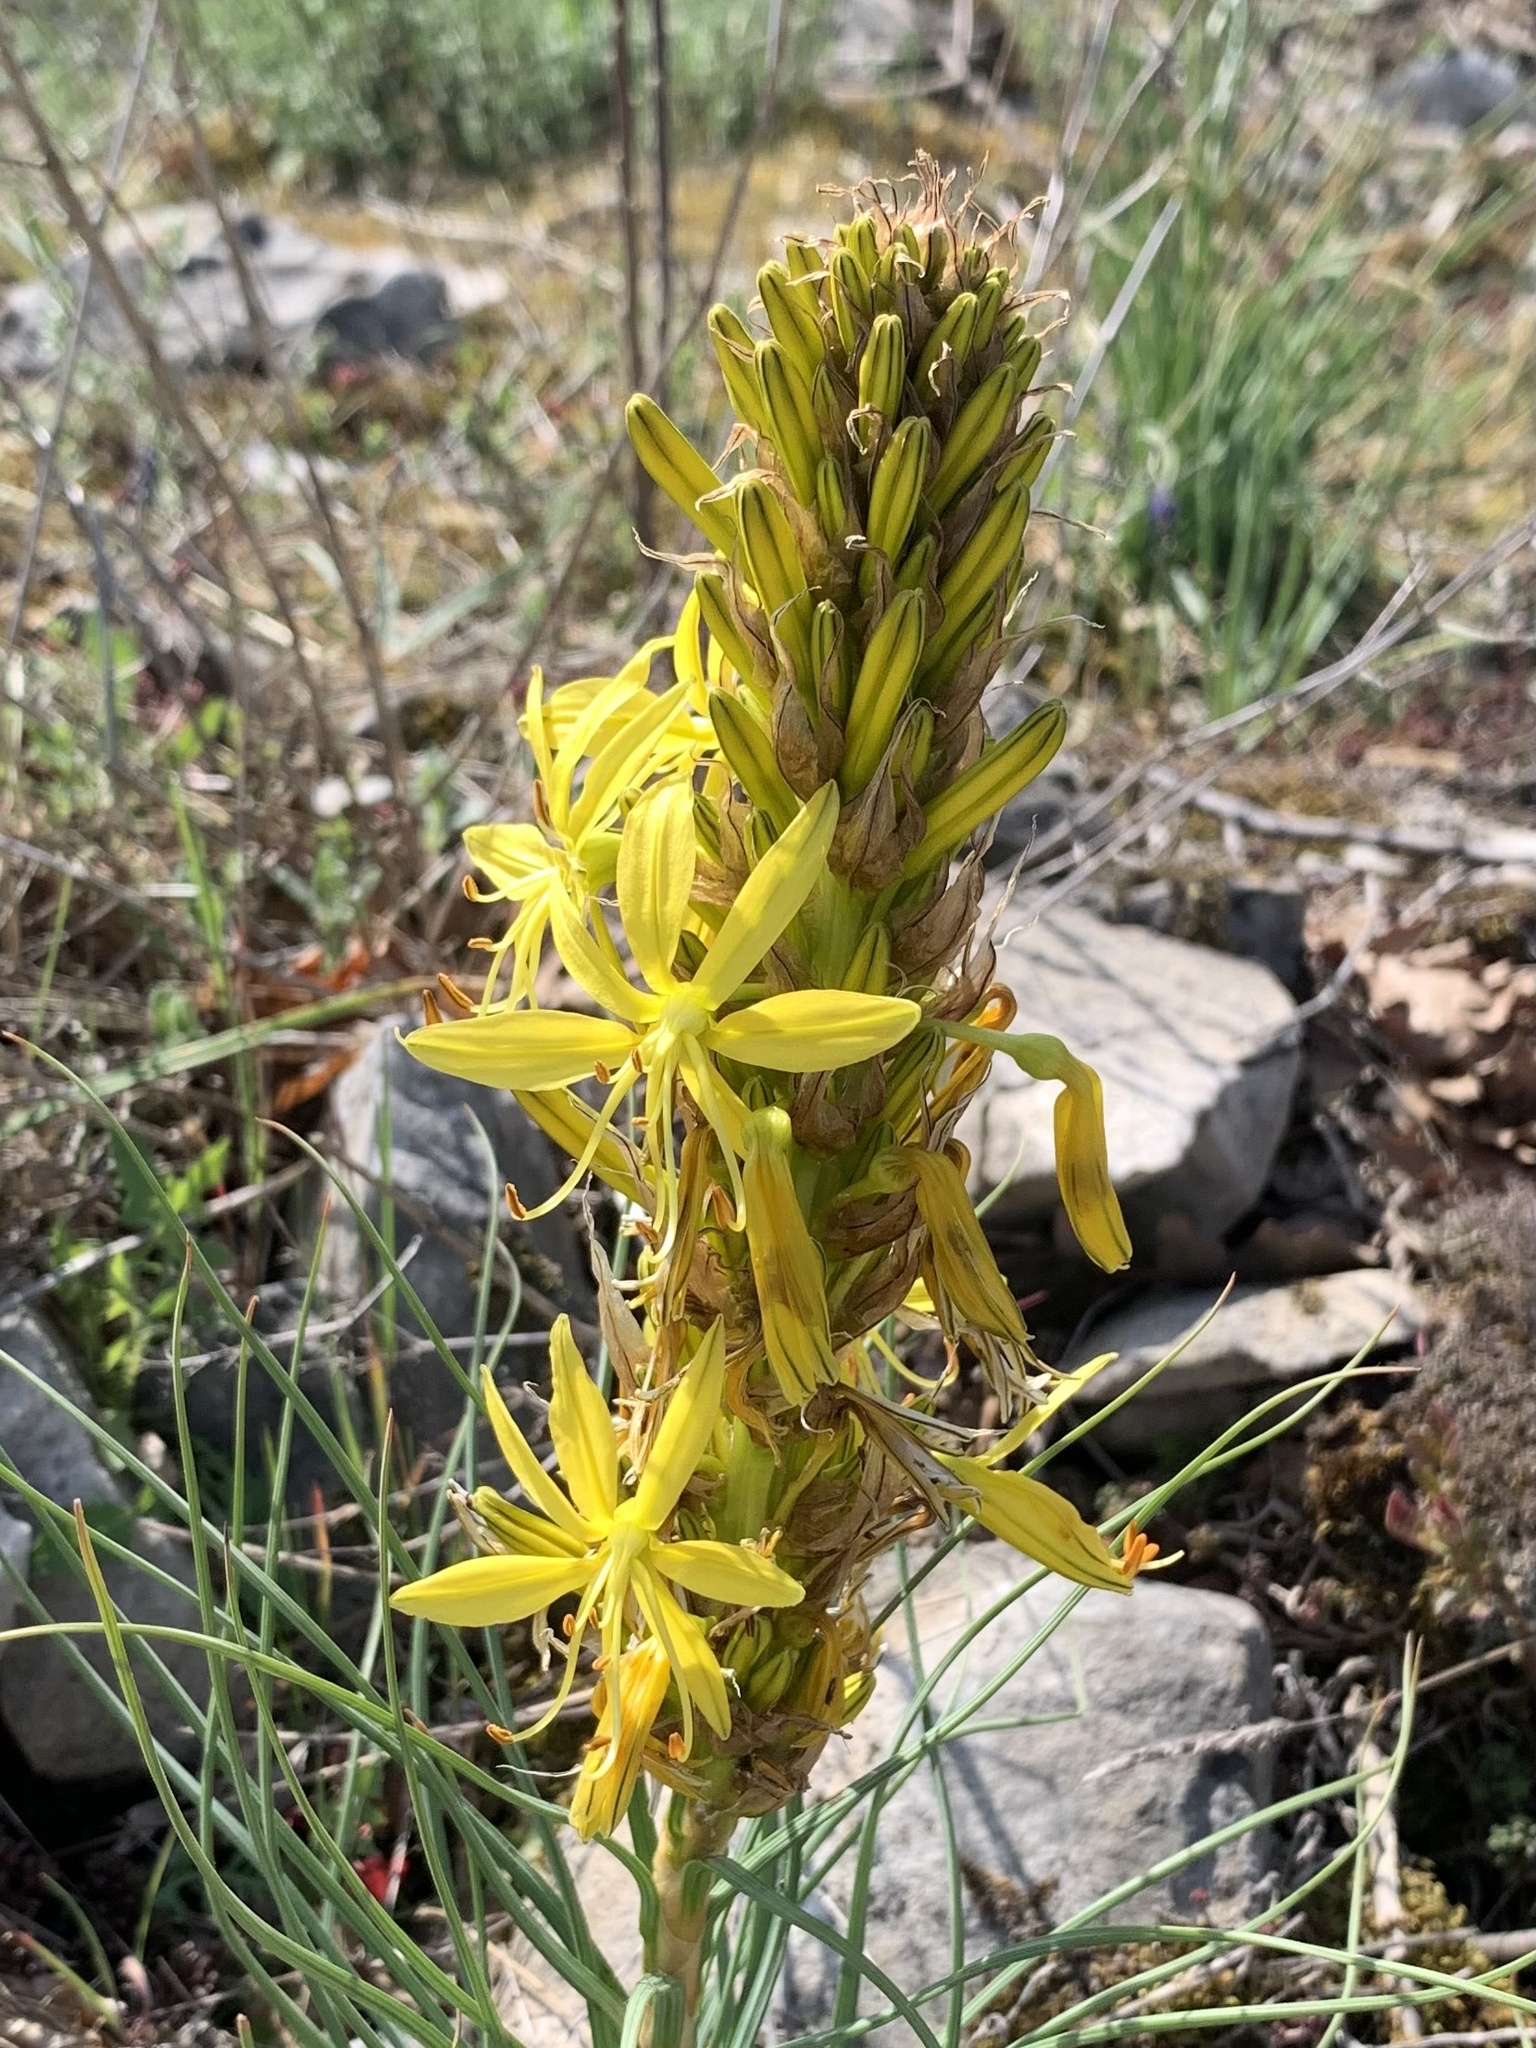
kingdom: Plantae
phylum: Tracheophyta
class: Liliopsida
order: Asparagales
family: Asphodelaceae
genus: Asphodeline
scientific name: Asphodeline lutea
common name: Yellow asphodel
